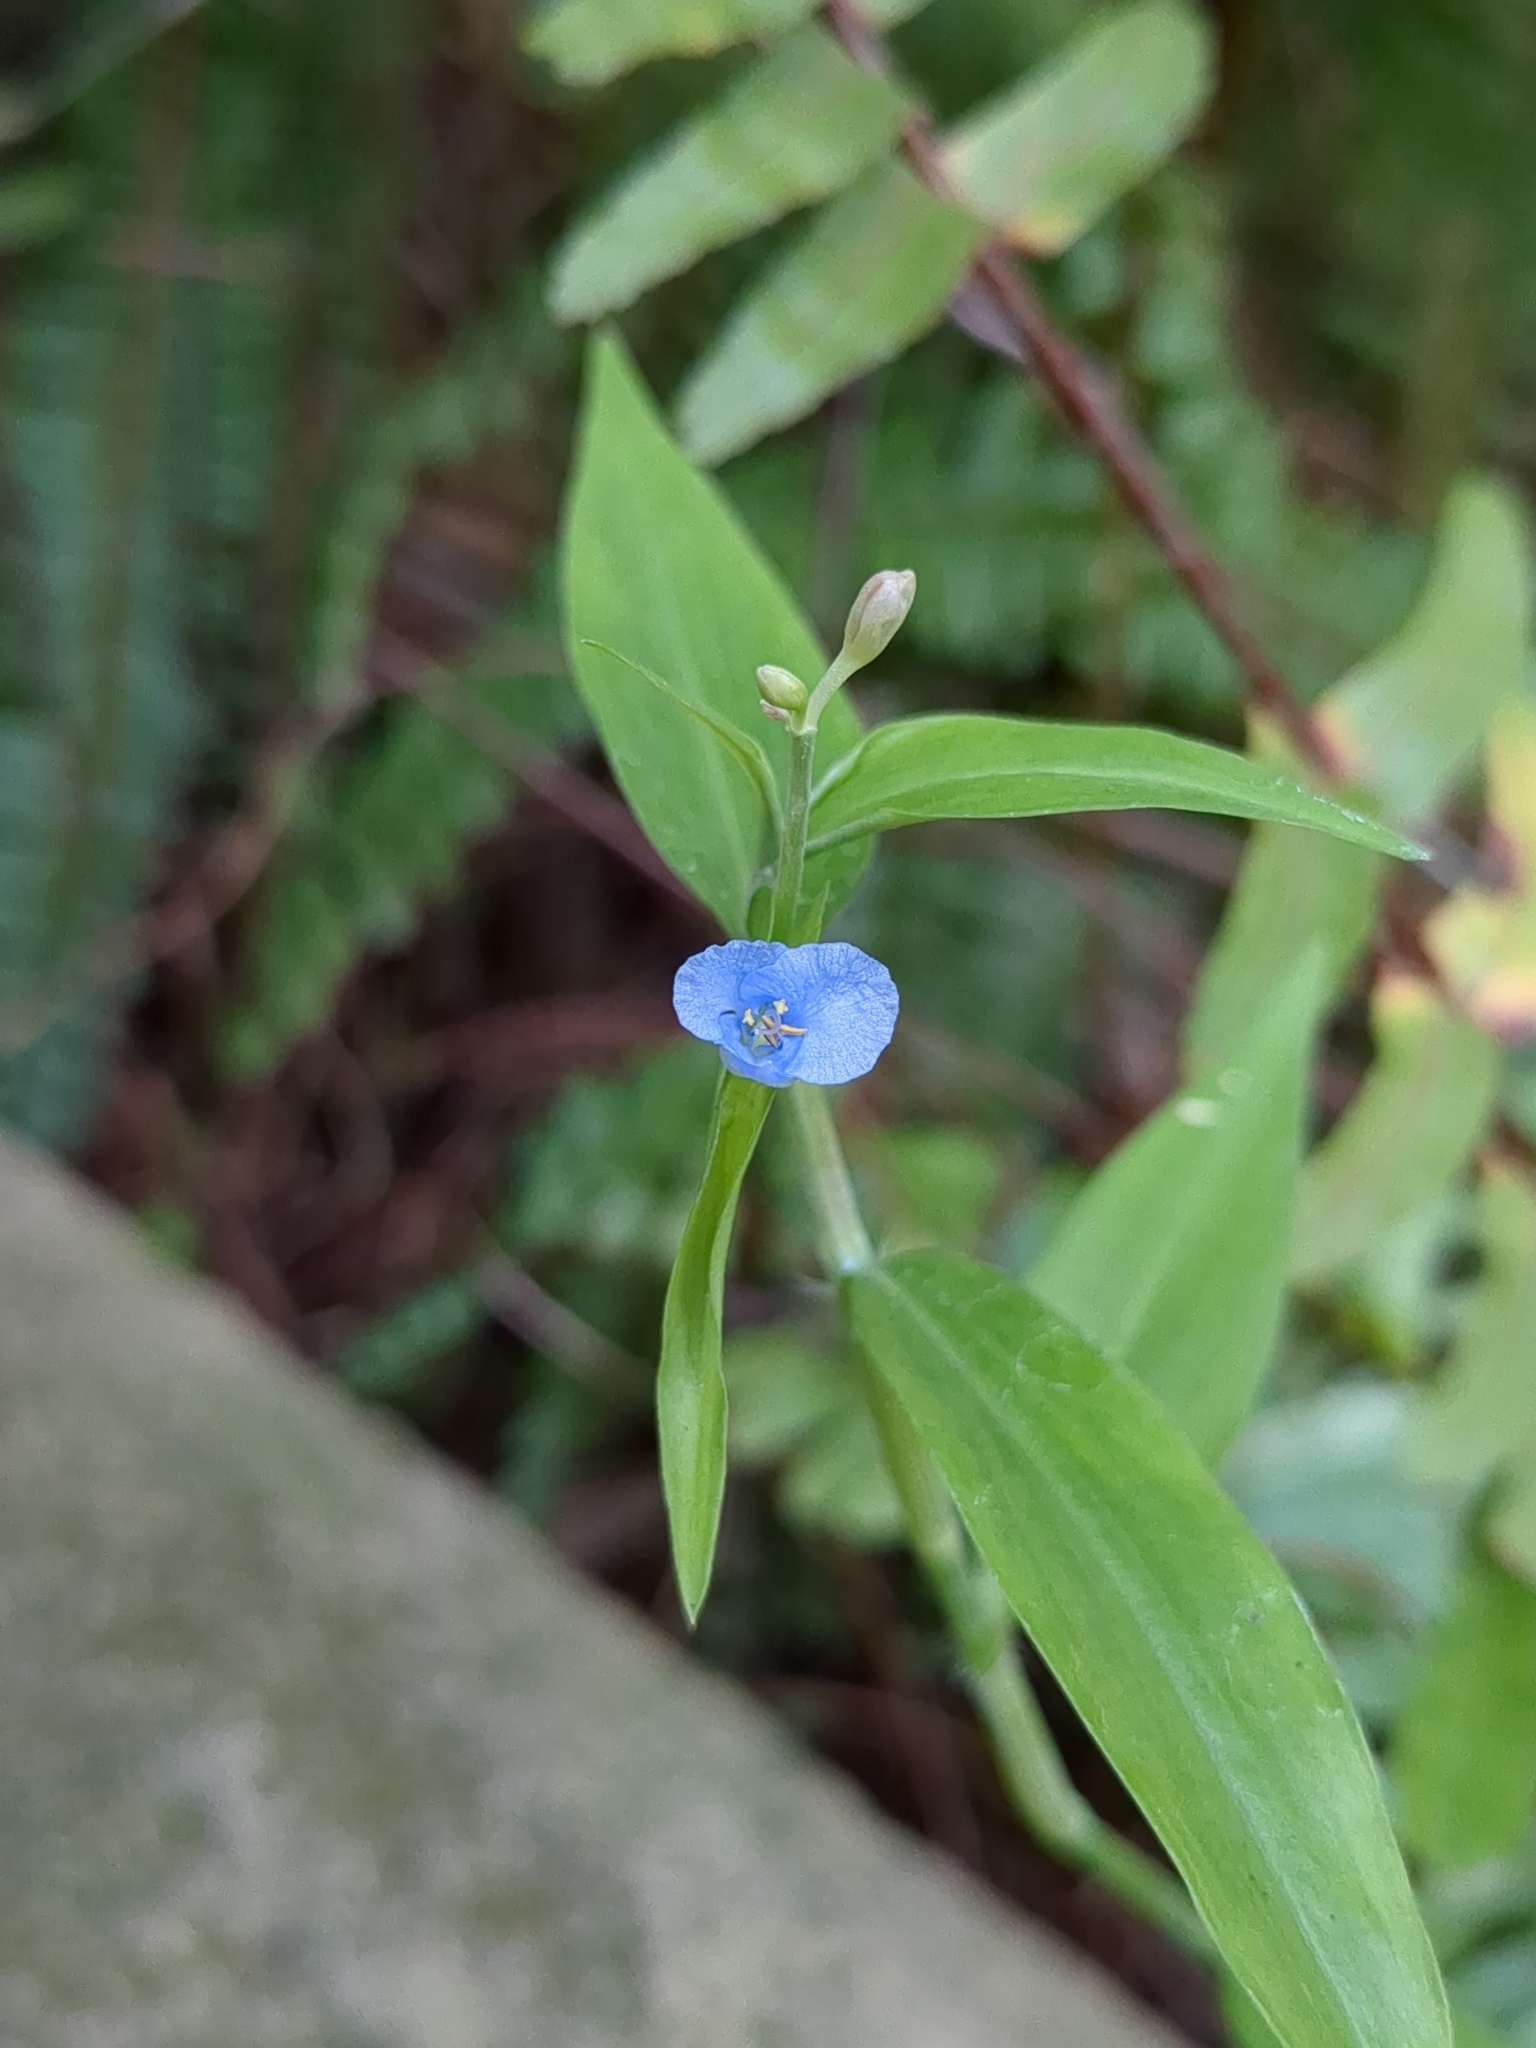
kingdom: Plantae
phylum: Tracheophyta
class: Liliopsida
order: Commelinales
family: Commelinaceae
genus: Commelina
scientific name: Commelina diffusa
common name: Climbing dayflower
